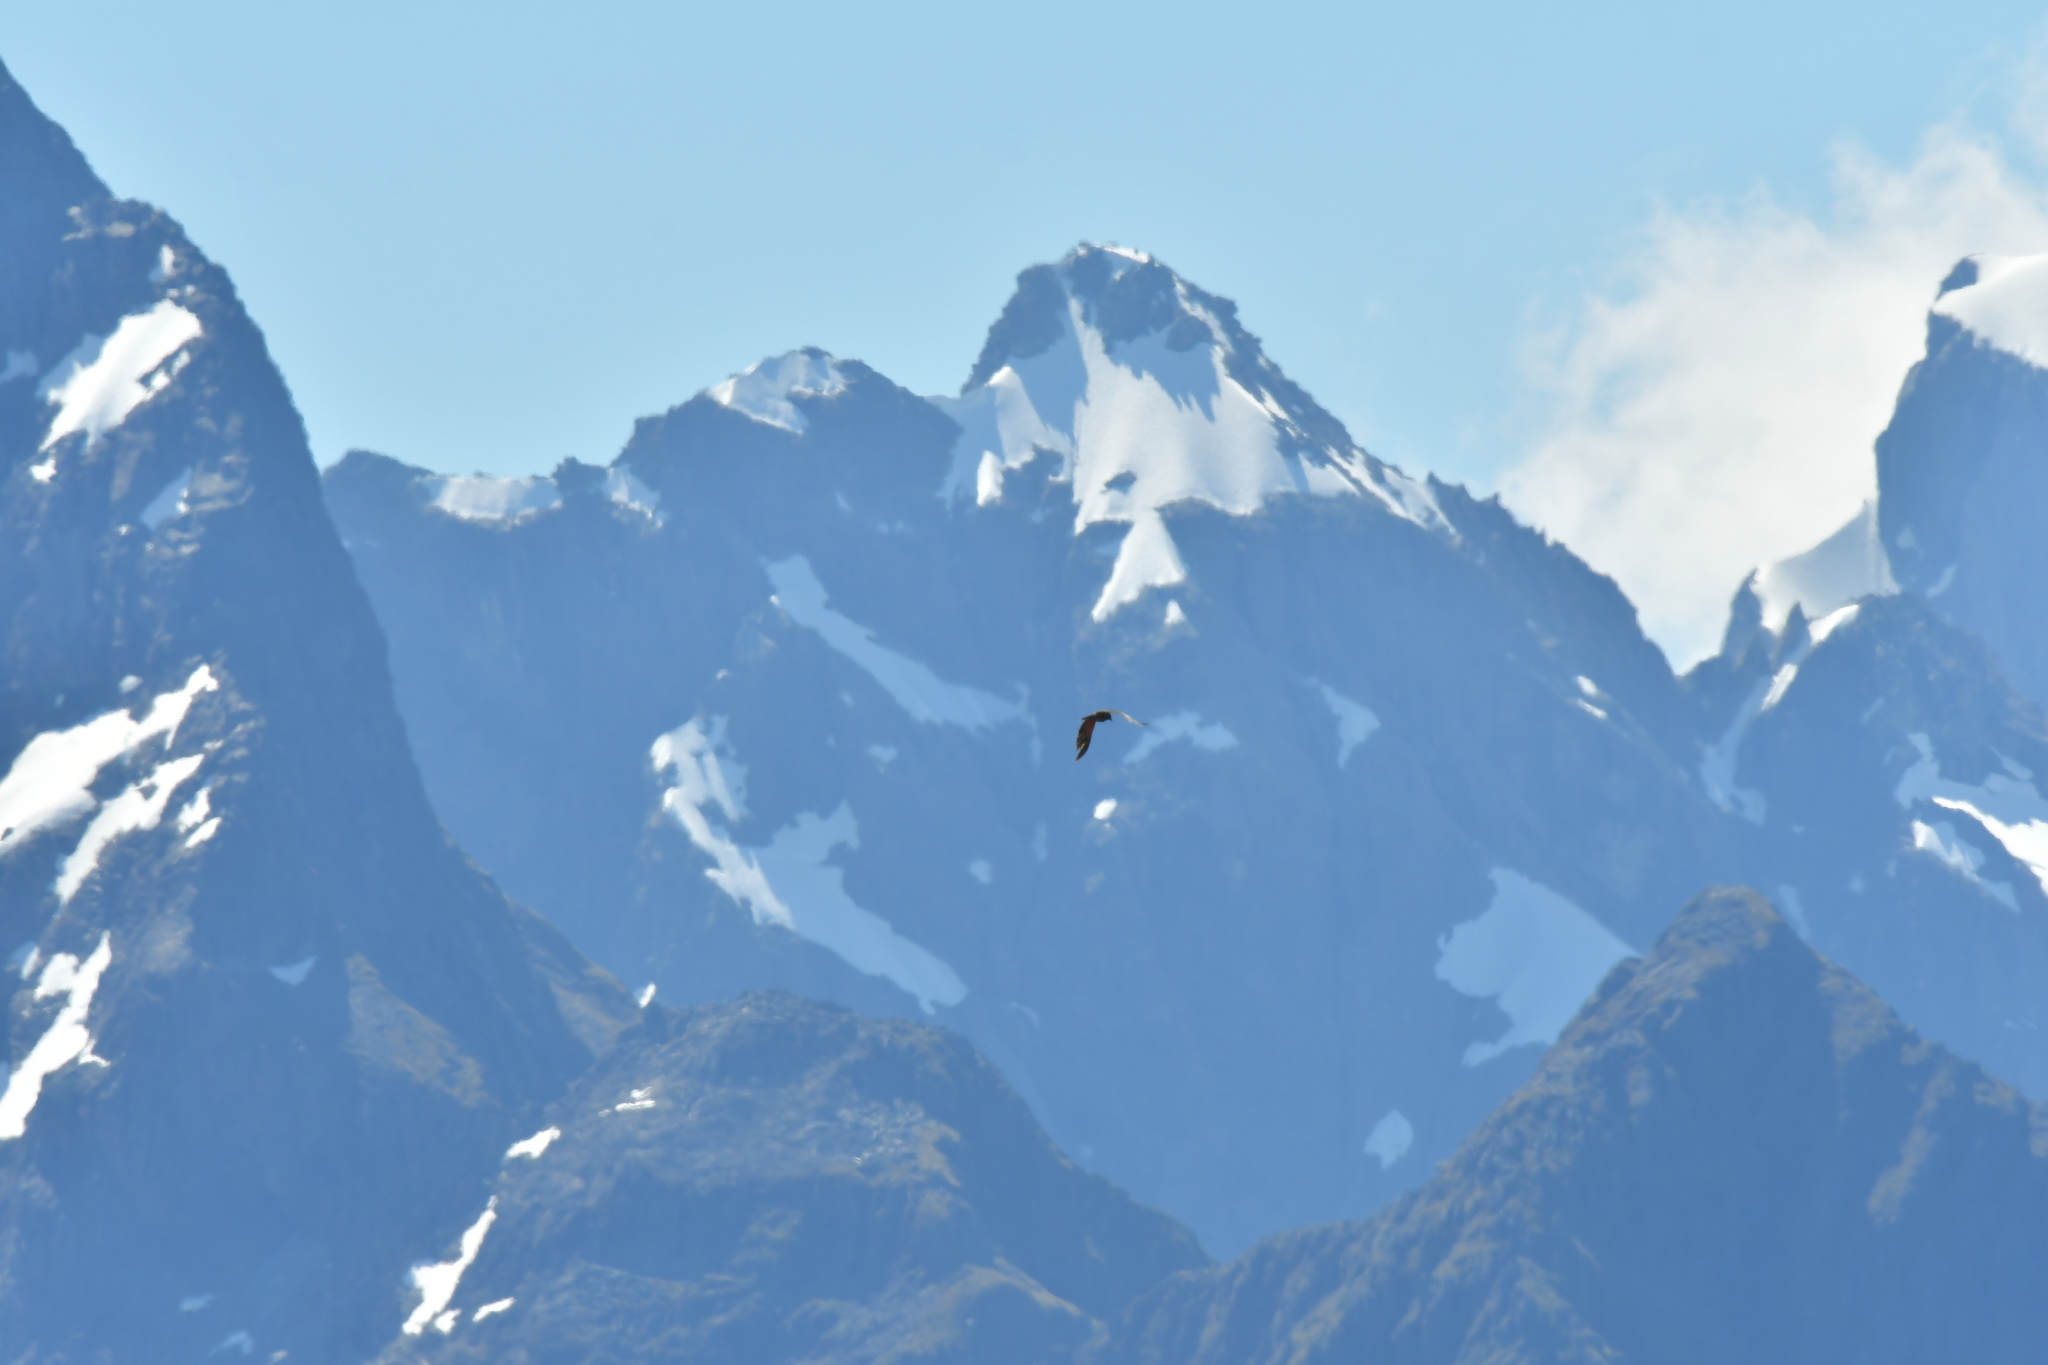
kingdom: Animalia
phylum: Chordata
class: Aves
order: Psittaciformes
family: Psittacidae
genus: Nestor
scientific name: Nestor notabilis
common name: Kea
